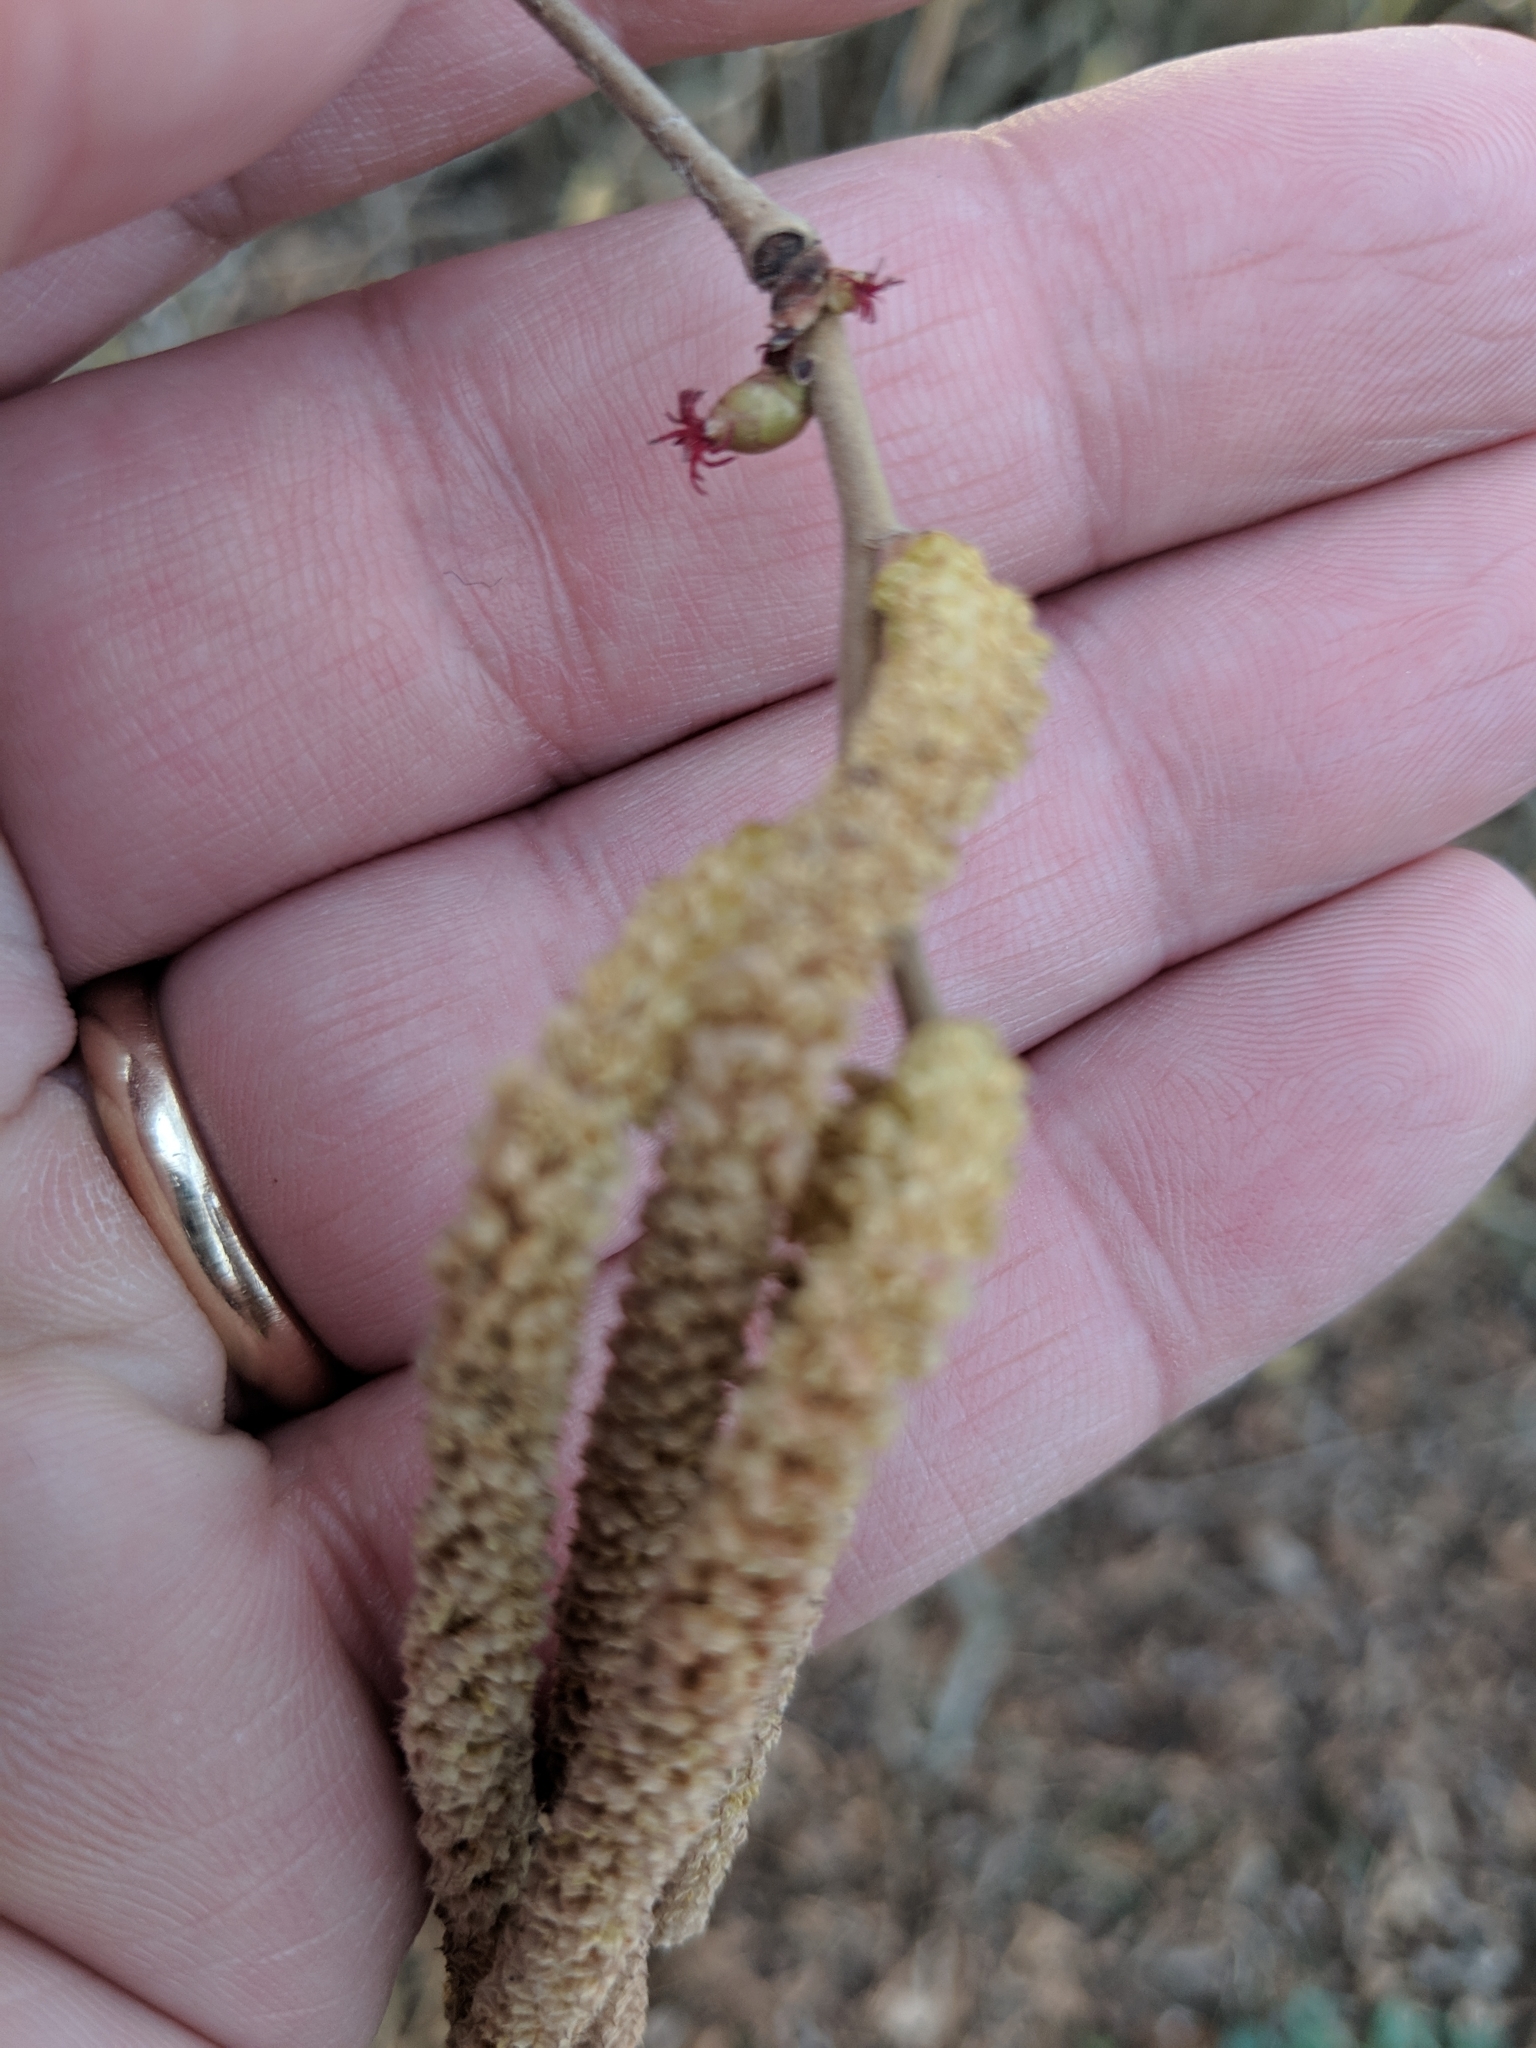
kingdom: Plantae
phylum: Tracheophyta
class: Magnoliopsida
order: Fagales
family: Betulaceae
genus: Corylus
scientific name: Corylus avellana
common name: European hazel
